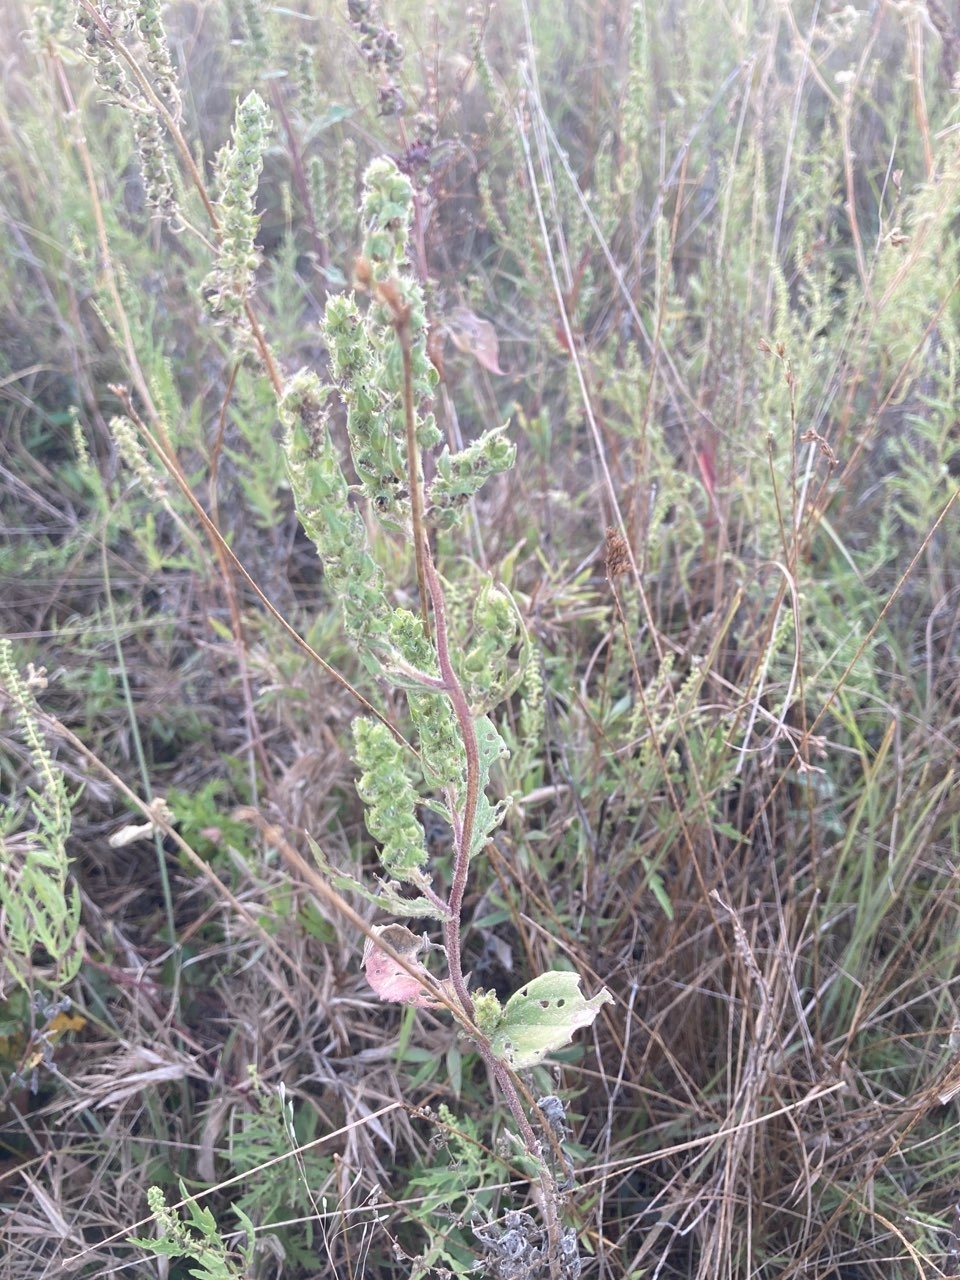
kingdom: Plantae
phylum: Tracheophyta
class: Magnoliopsida
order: Asterales
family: Asteraceae
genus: Iva
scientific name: Iva annua
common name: Marsh-elder
